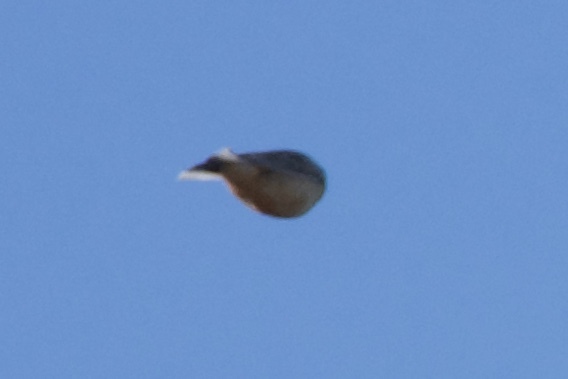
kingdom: Animalia
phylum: Chordata
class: Aves
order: Passeriformes
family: Calcariidae
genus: Calcarius
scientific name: Calcarius pictus
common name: Smith's longspur
